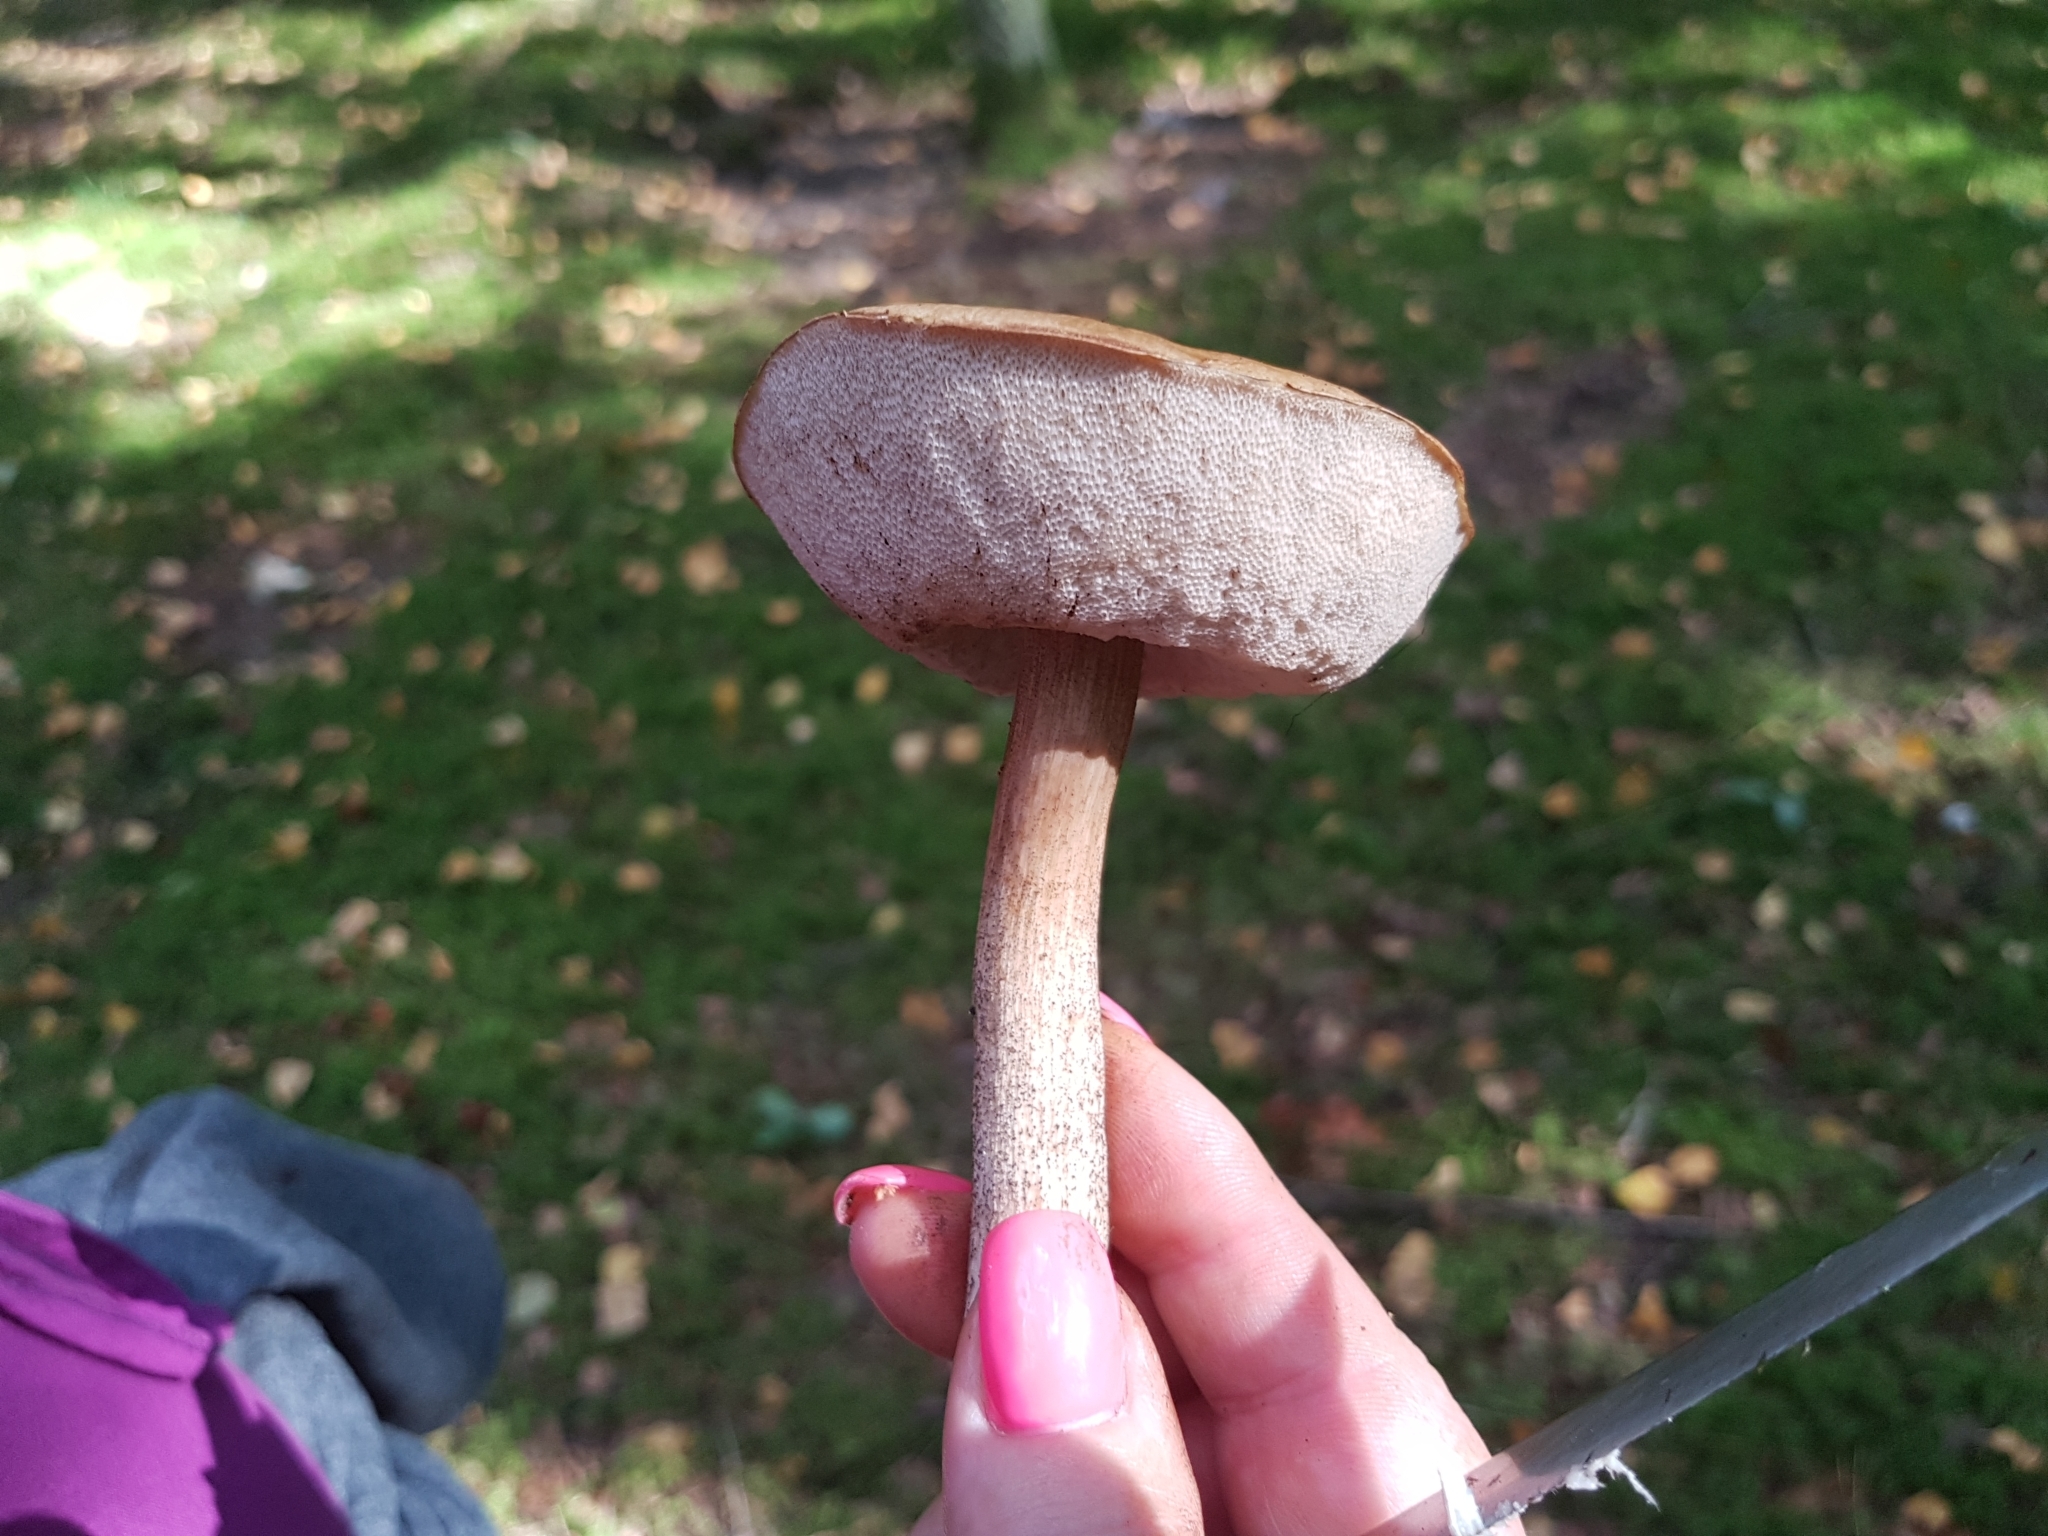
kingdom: Fungi
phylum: Basidiomycota
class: Agaricomycetes
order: Boletales
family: Boletaceae
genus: Leccinum
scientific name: Leccinum scabrum
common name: Blushing bolete
